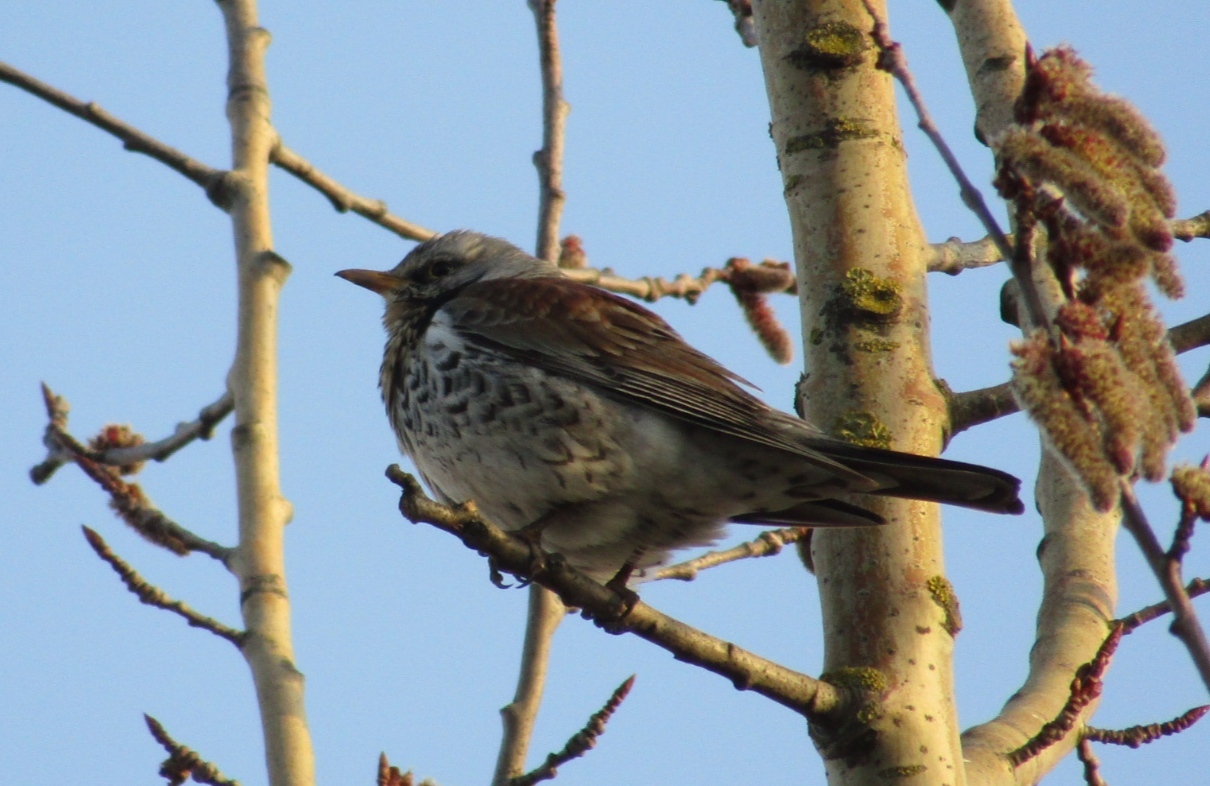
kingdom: Animalia
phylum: Chordata
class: Aves
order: Passeriformes
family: Turdidae
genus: Turdus
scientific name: Turdus pilaris
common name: Fieldfare
